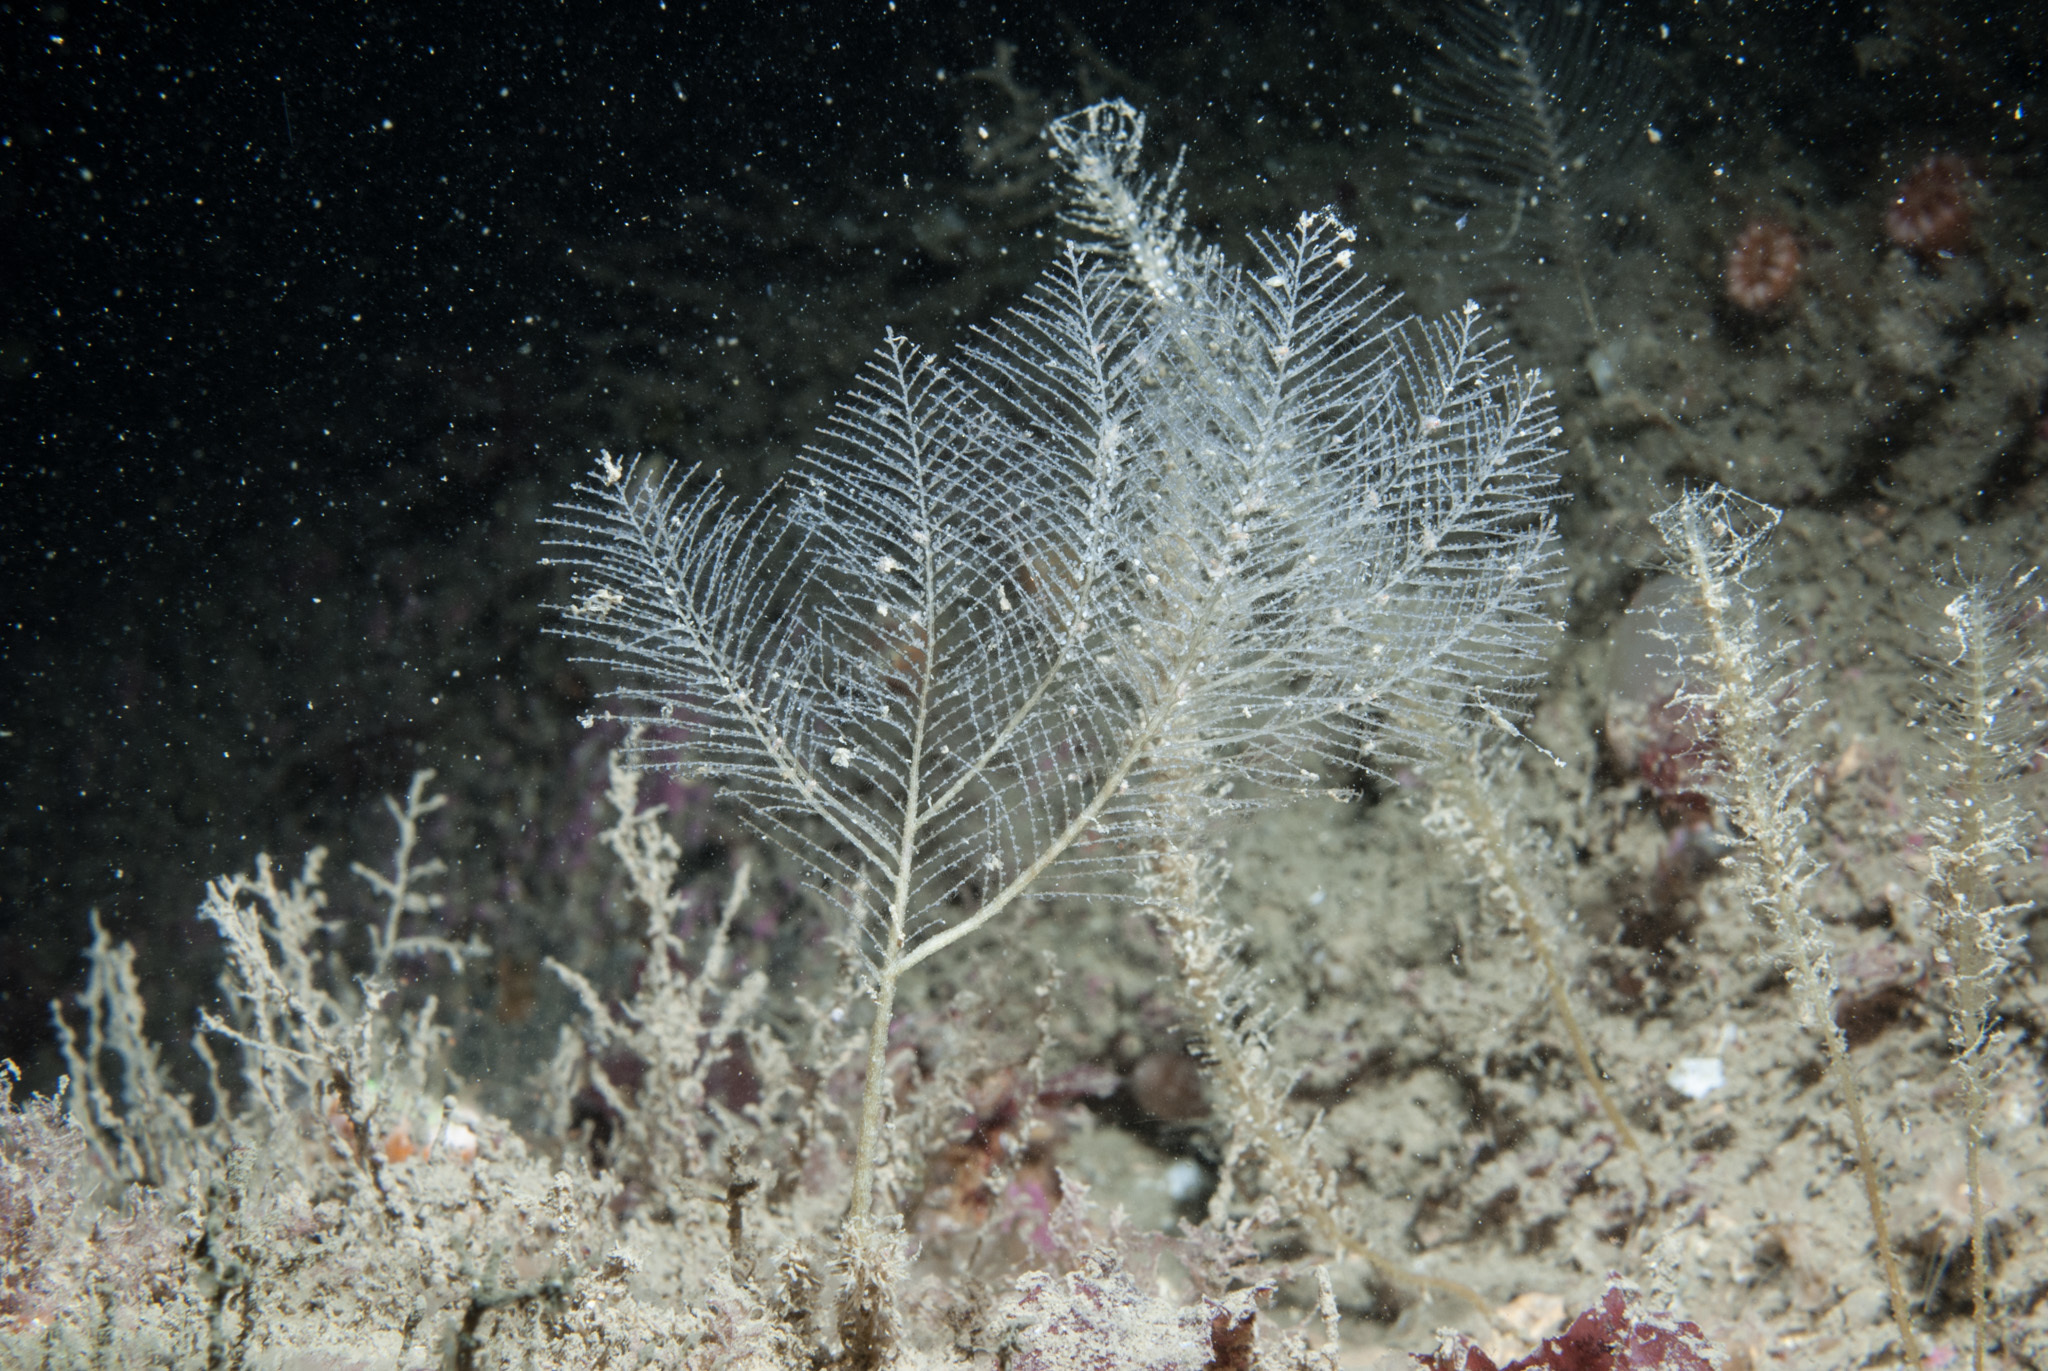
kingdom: Animalia
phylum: Cnidaria
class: Hydrozoa
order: Leptothecata
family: Schizotrichidae
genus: Schizotricha
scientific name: Schizotricha frutescens
